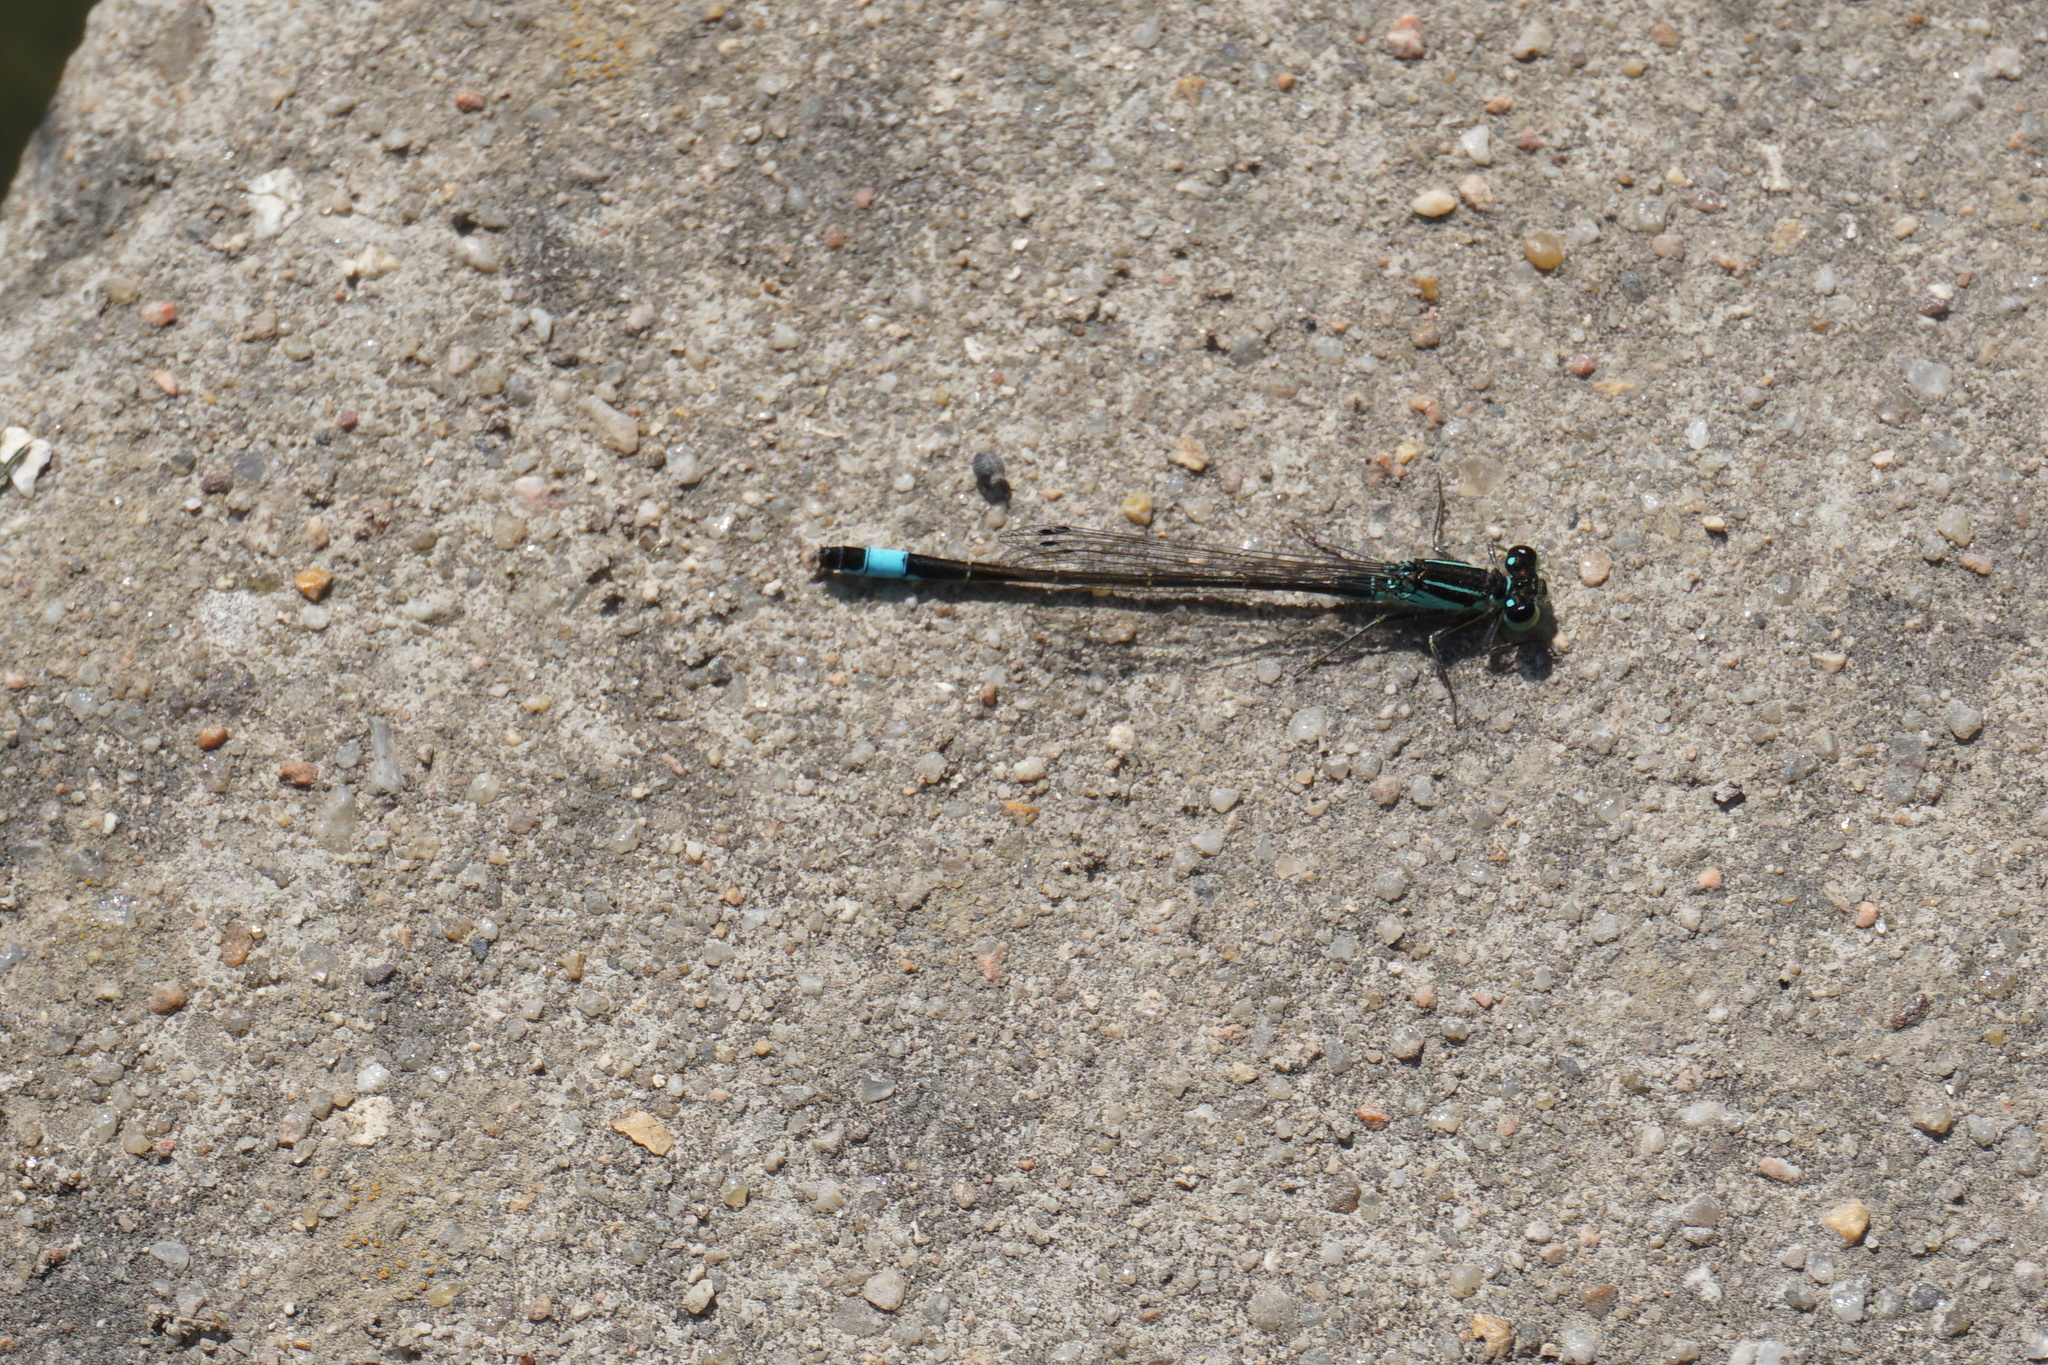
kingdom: Animalia
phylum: Arthropoda
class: Insecta
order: Odonata
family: Coenagrionidae
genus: Ischnura
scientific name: Ischnura elegans
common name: Blue-tailed damselfly
